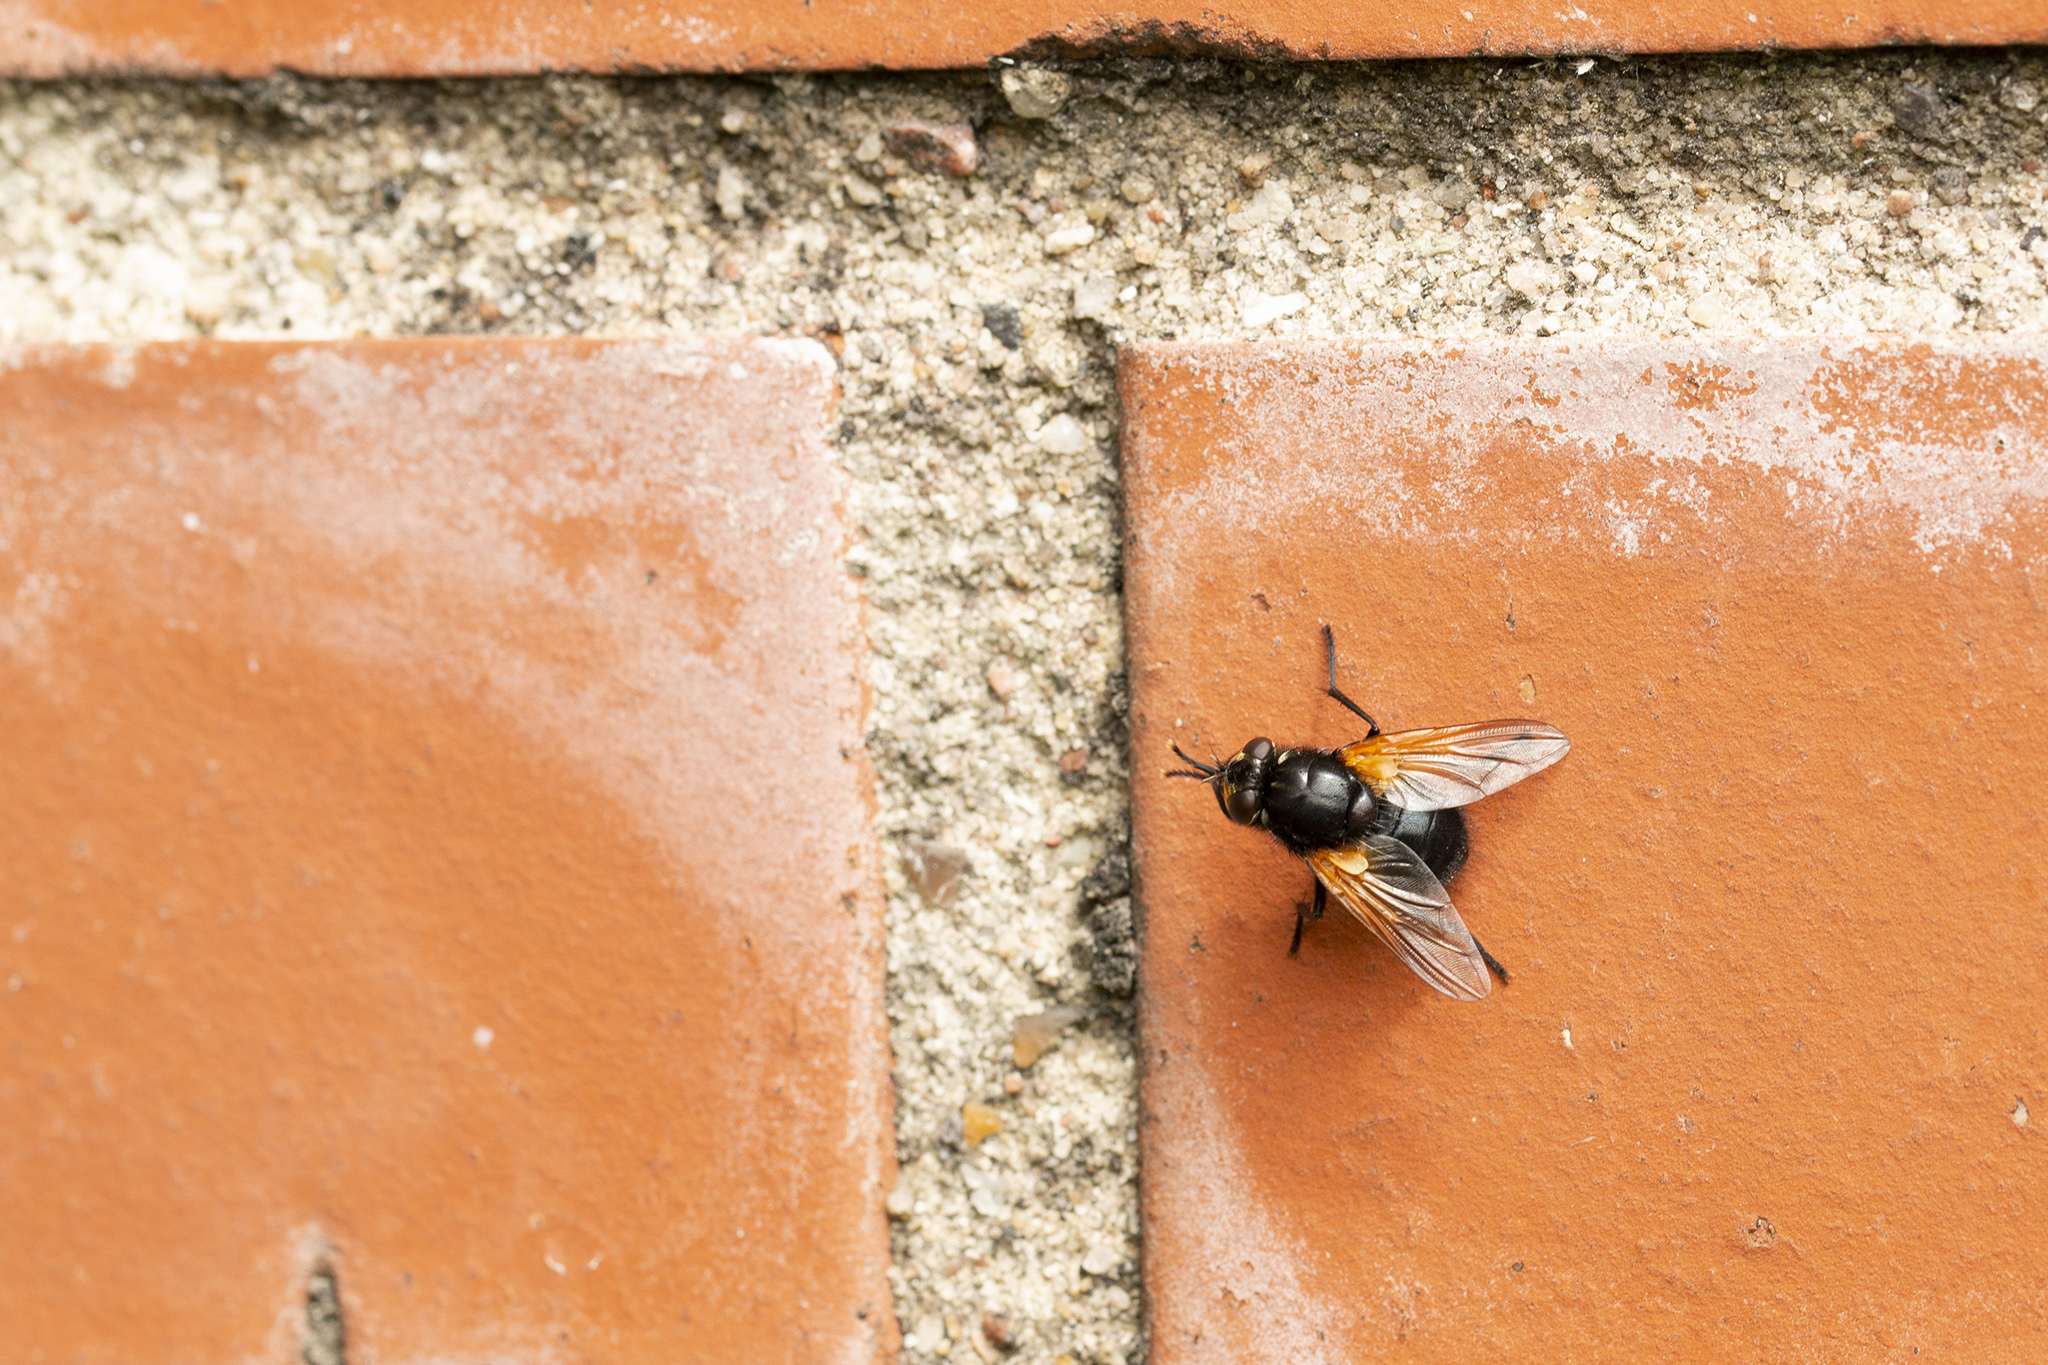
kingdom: Animalia
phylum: Arthropoda
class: Insecta
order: Diptera
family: Muscidae
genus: Mesembrina
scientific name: Mesembrina meridiana
